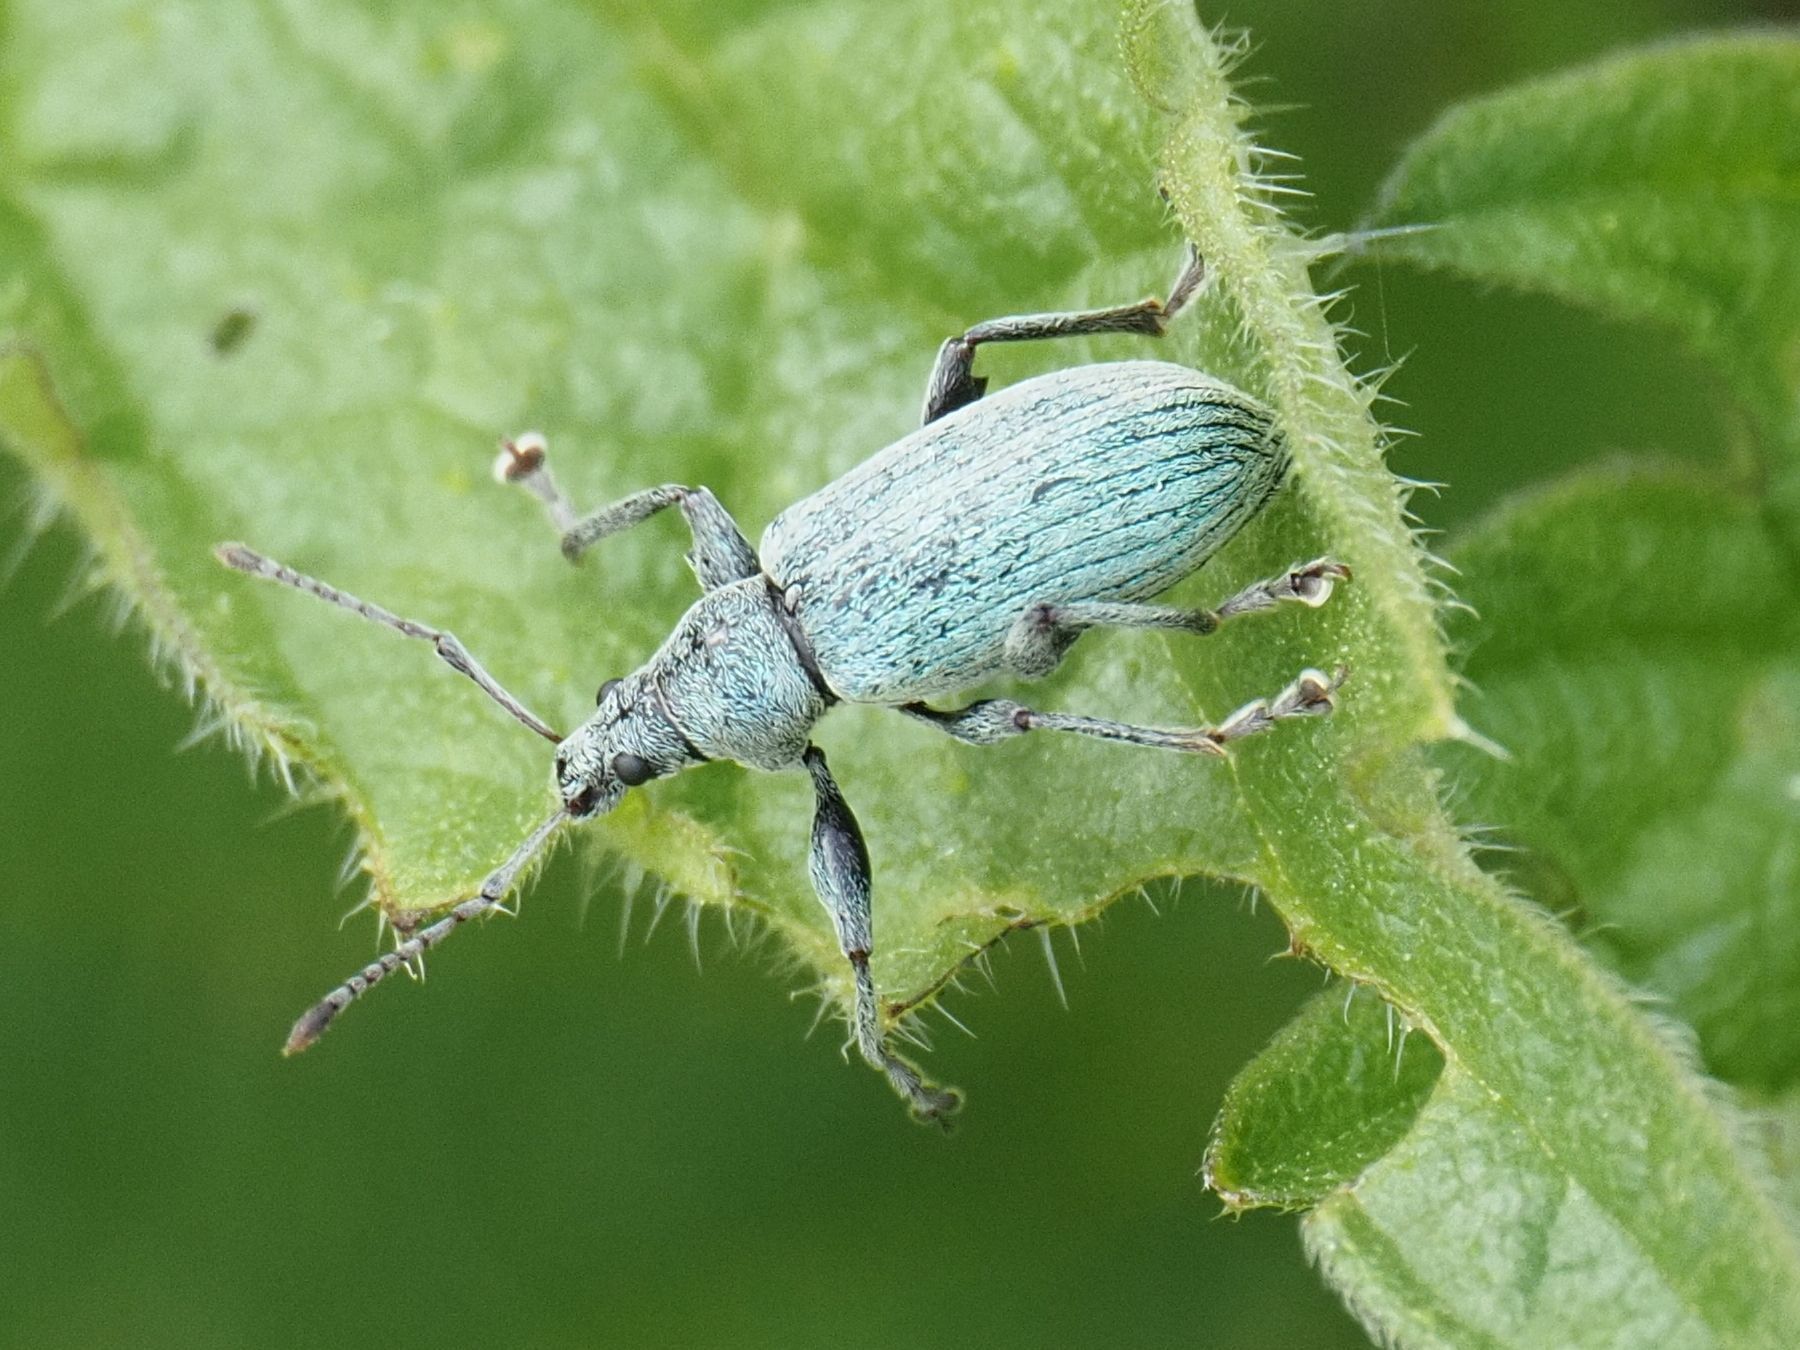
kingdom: Animalia
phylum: Arthropoda
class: Insecta
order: Coleoptera
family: Curculionidae
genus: Phyllobius
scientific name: Phyllobius pomaceus
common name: Green nettle weevil
